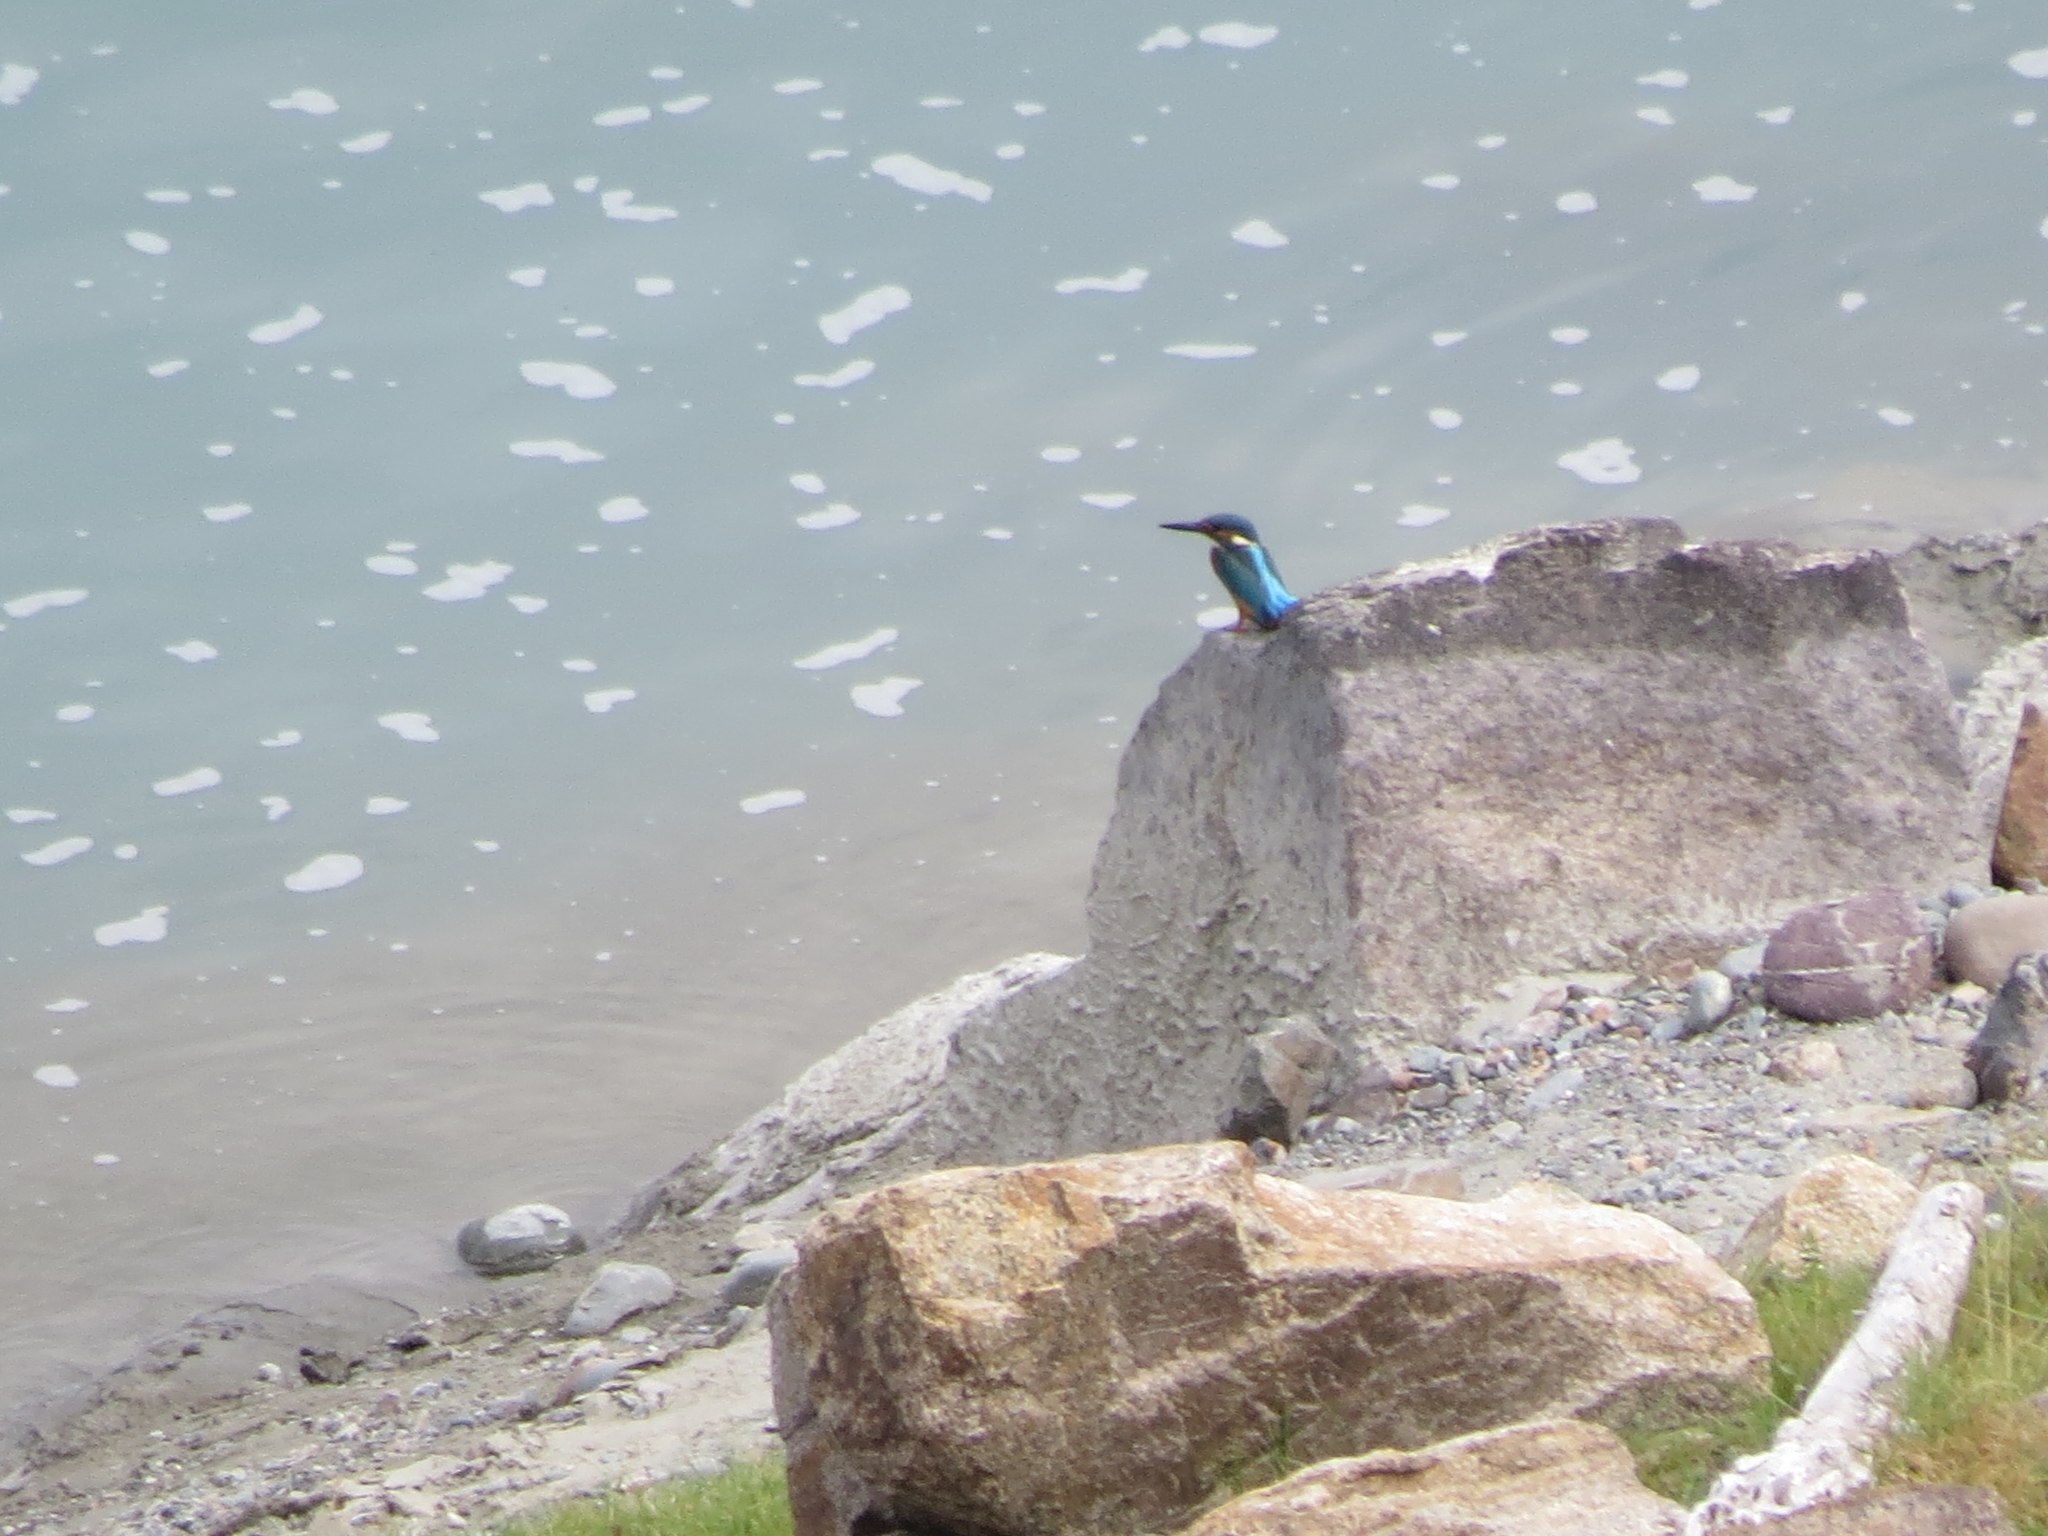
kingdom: Animalia
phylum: Chordata
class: Aves
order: Coraciiformes
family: Alcedinidae
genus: Alcedo
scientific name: Alcedo atthis
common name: Common kingfisher
